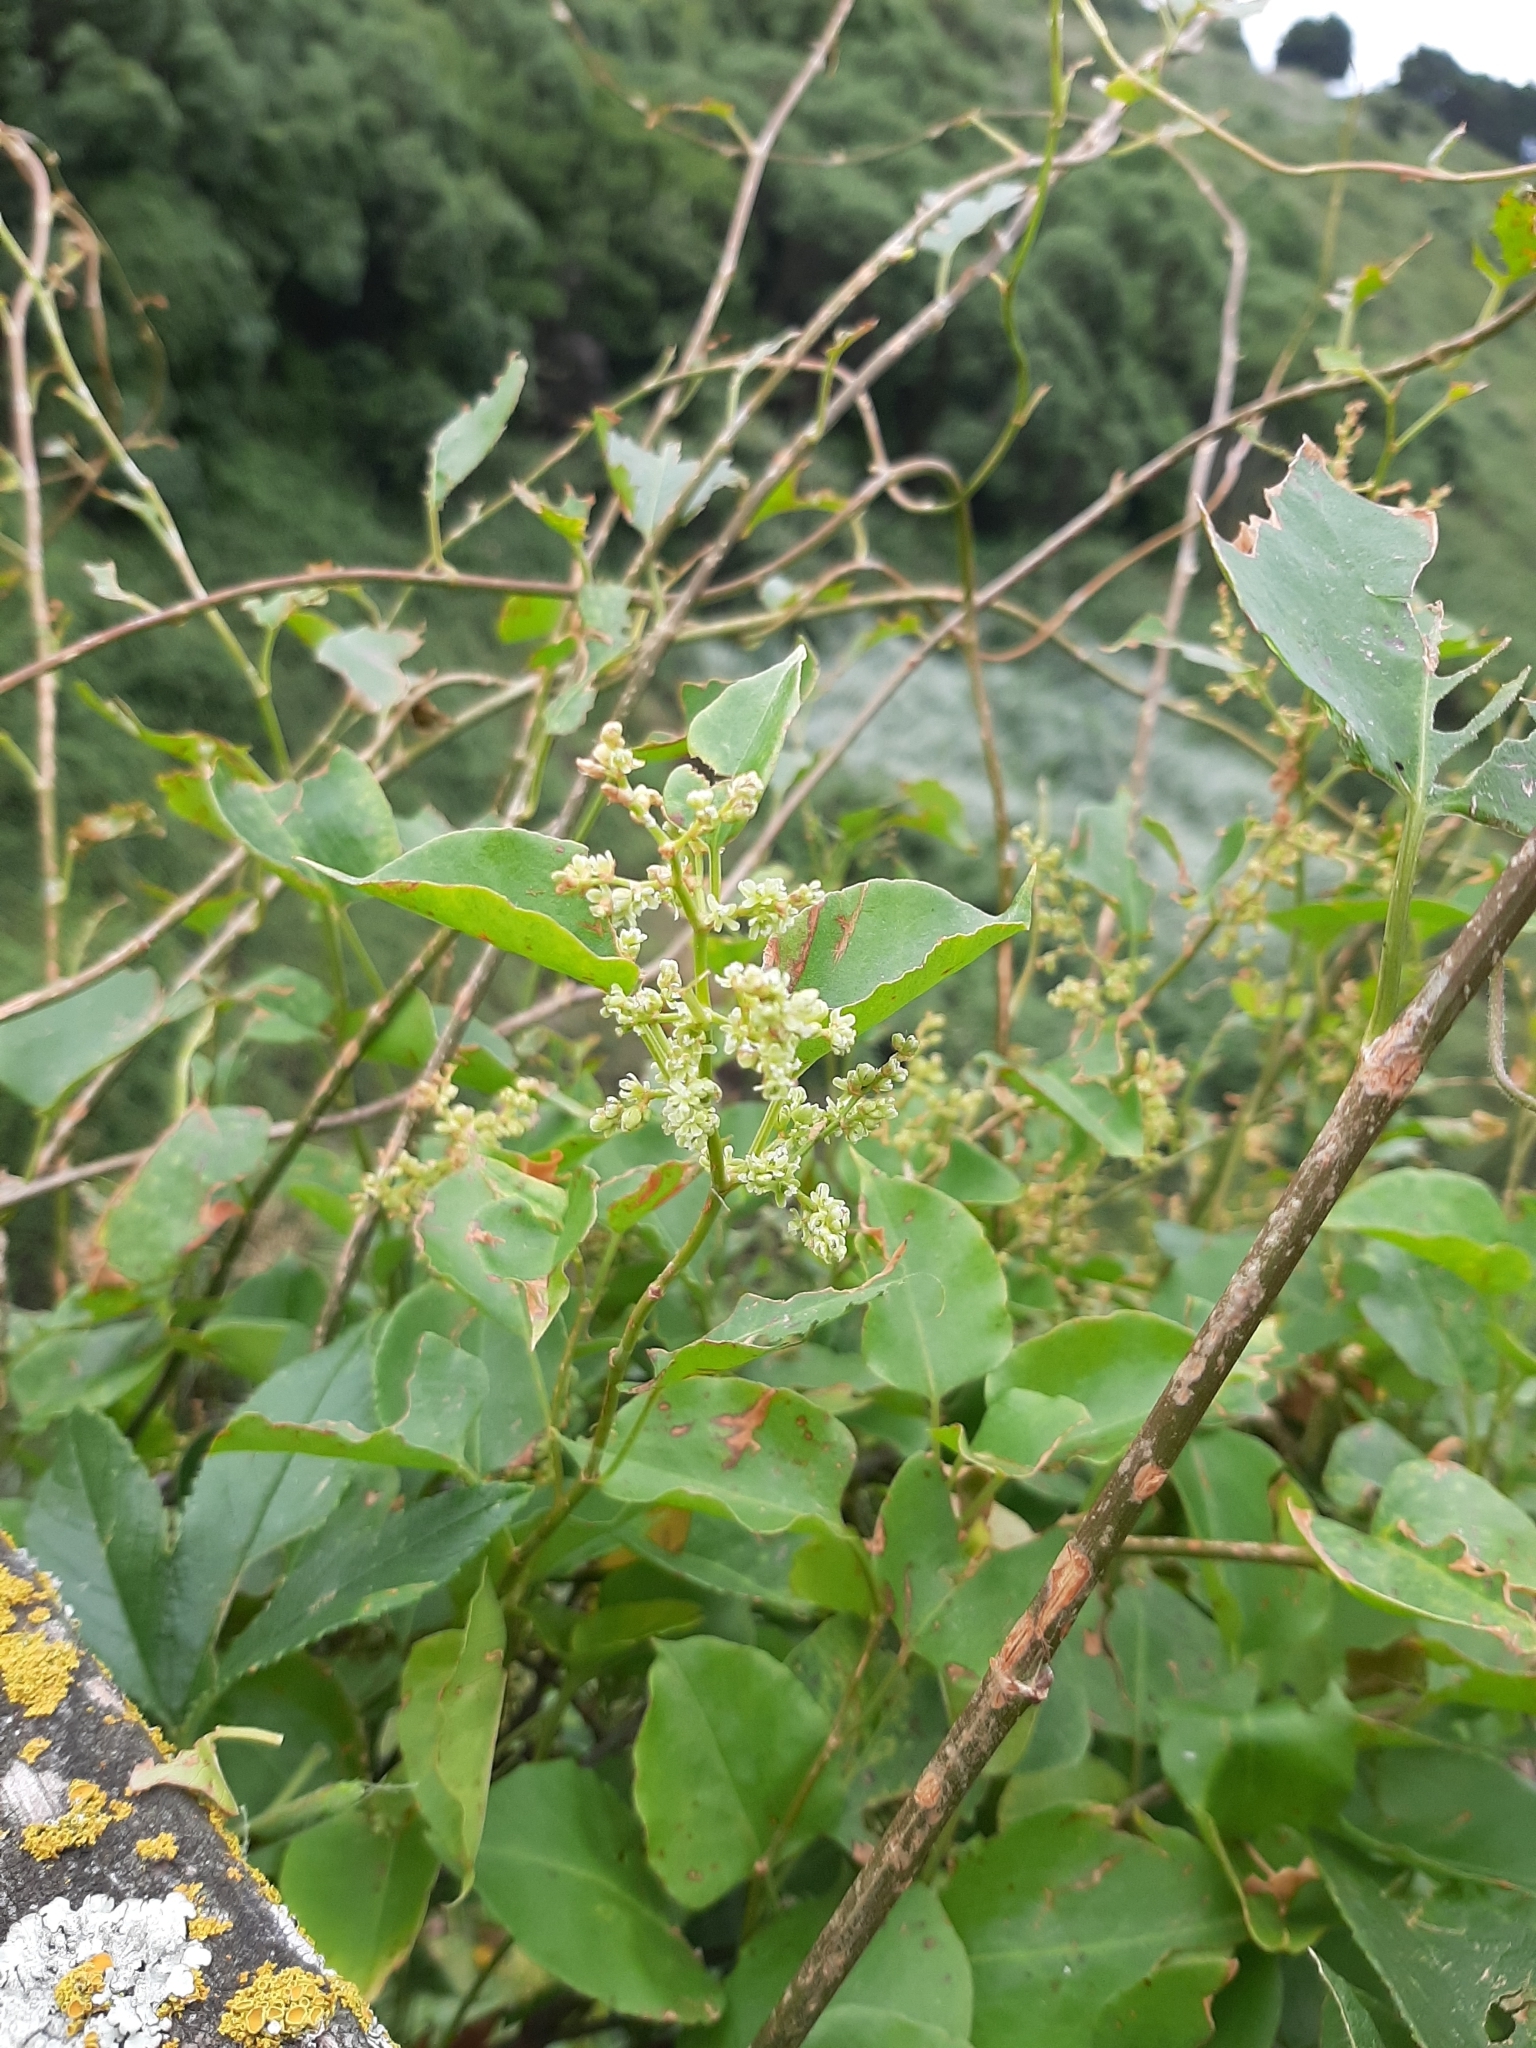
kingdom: Plantae
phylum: Tracheophyta
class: Magnoliopsida
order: Caryophyllales
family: Polygonaceae
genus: Muehlenbeckia
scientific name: Muehlenbeckia australis
